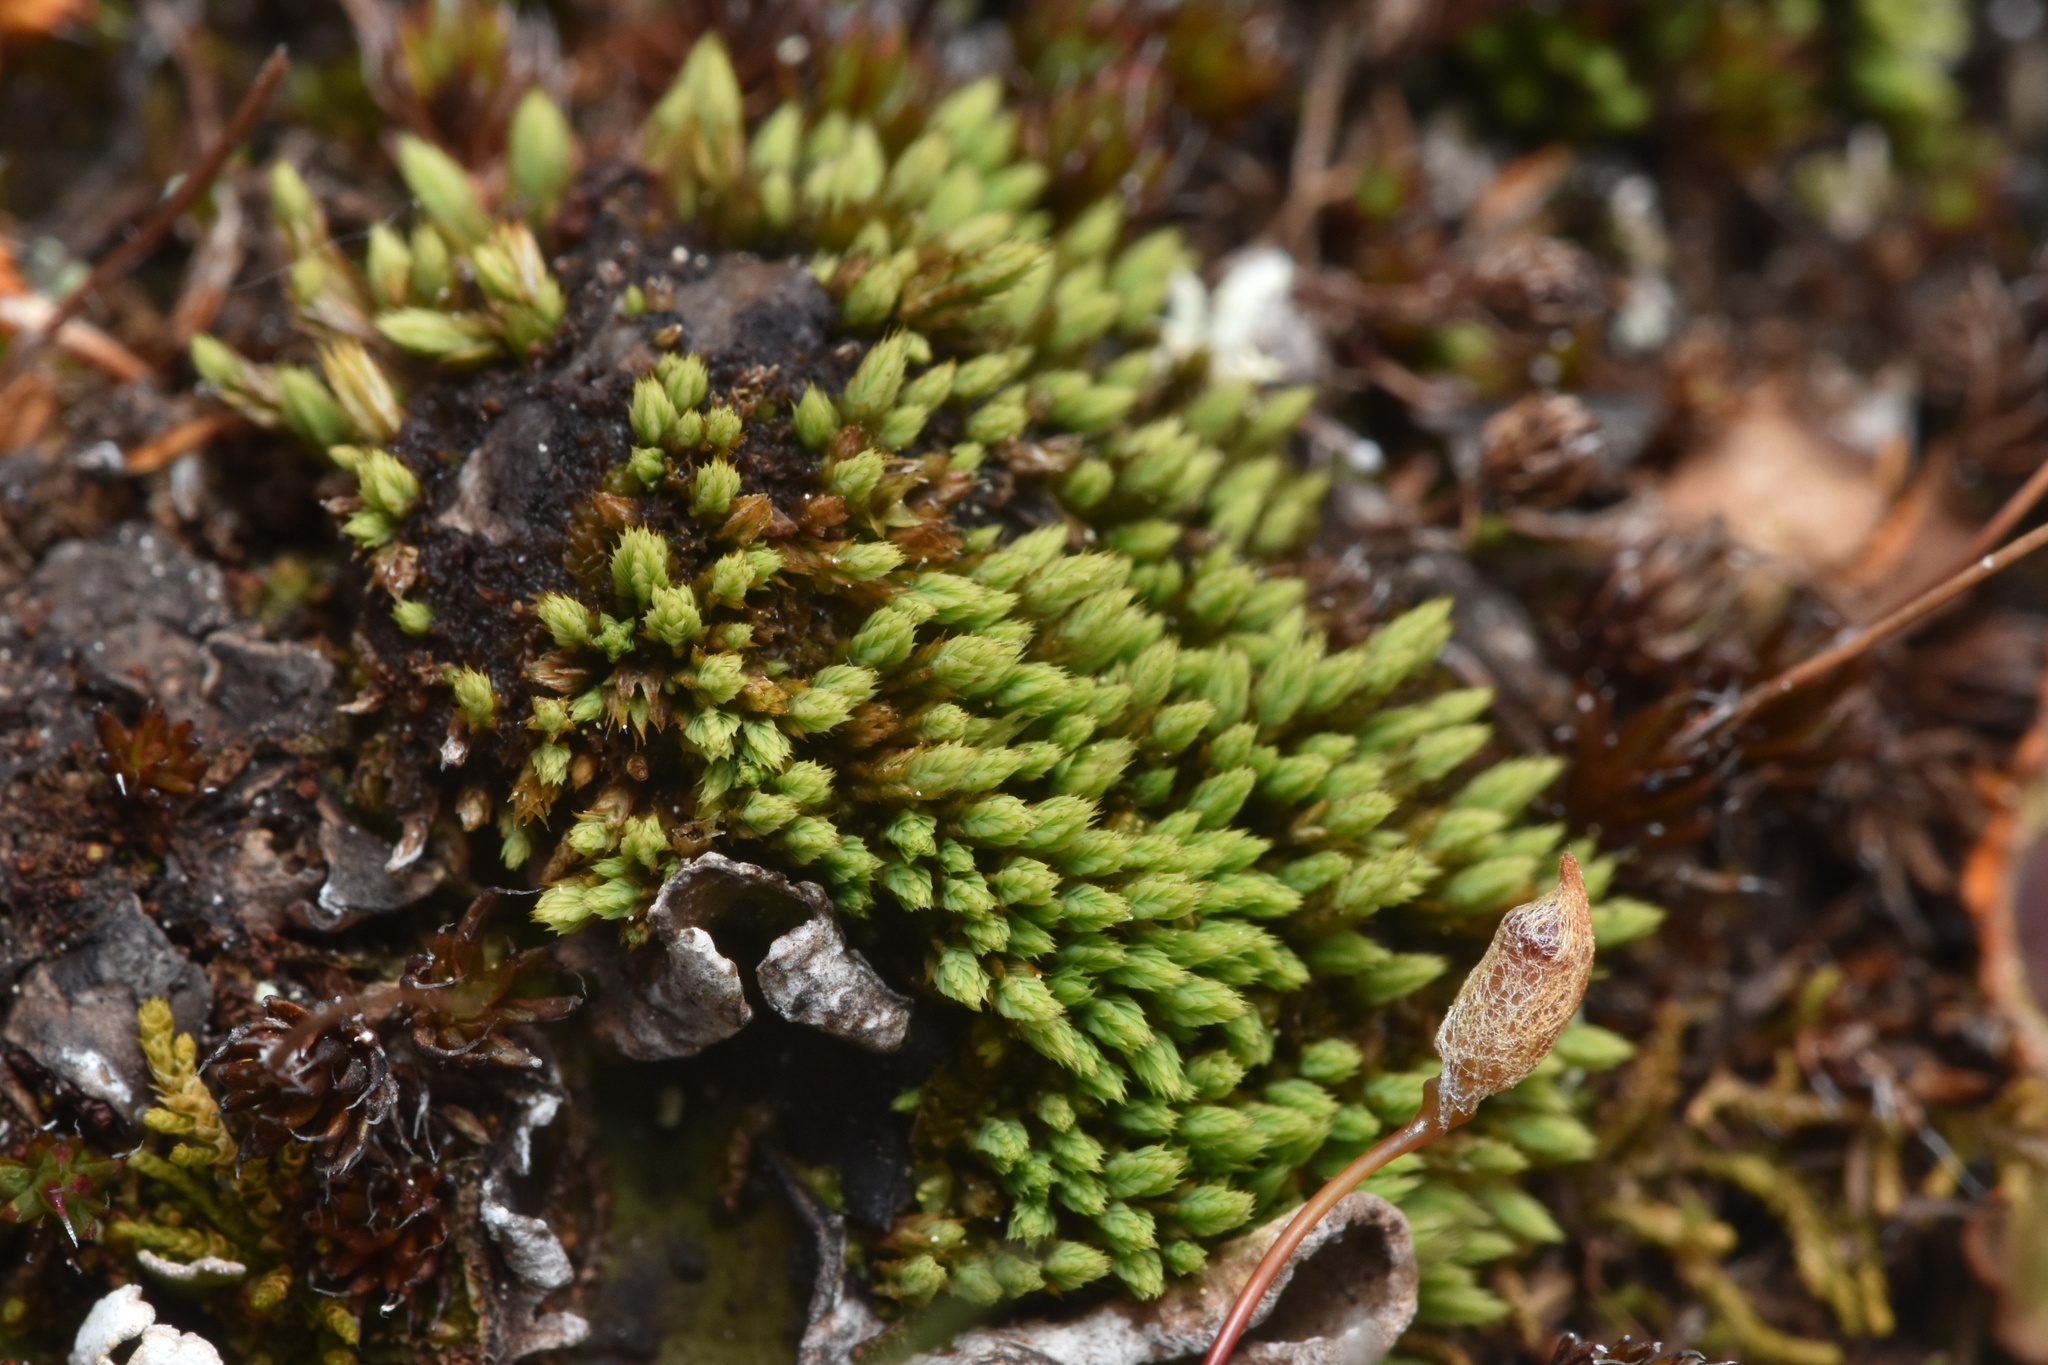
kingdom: Plantae
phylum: Bryophyta
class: Bryopsida
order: Bartramiales
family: Bartramiaceae
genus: Conostomum
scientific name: Conostomum tetragonum
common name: Helmet moss
